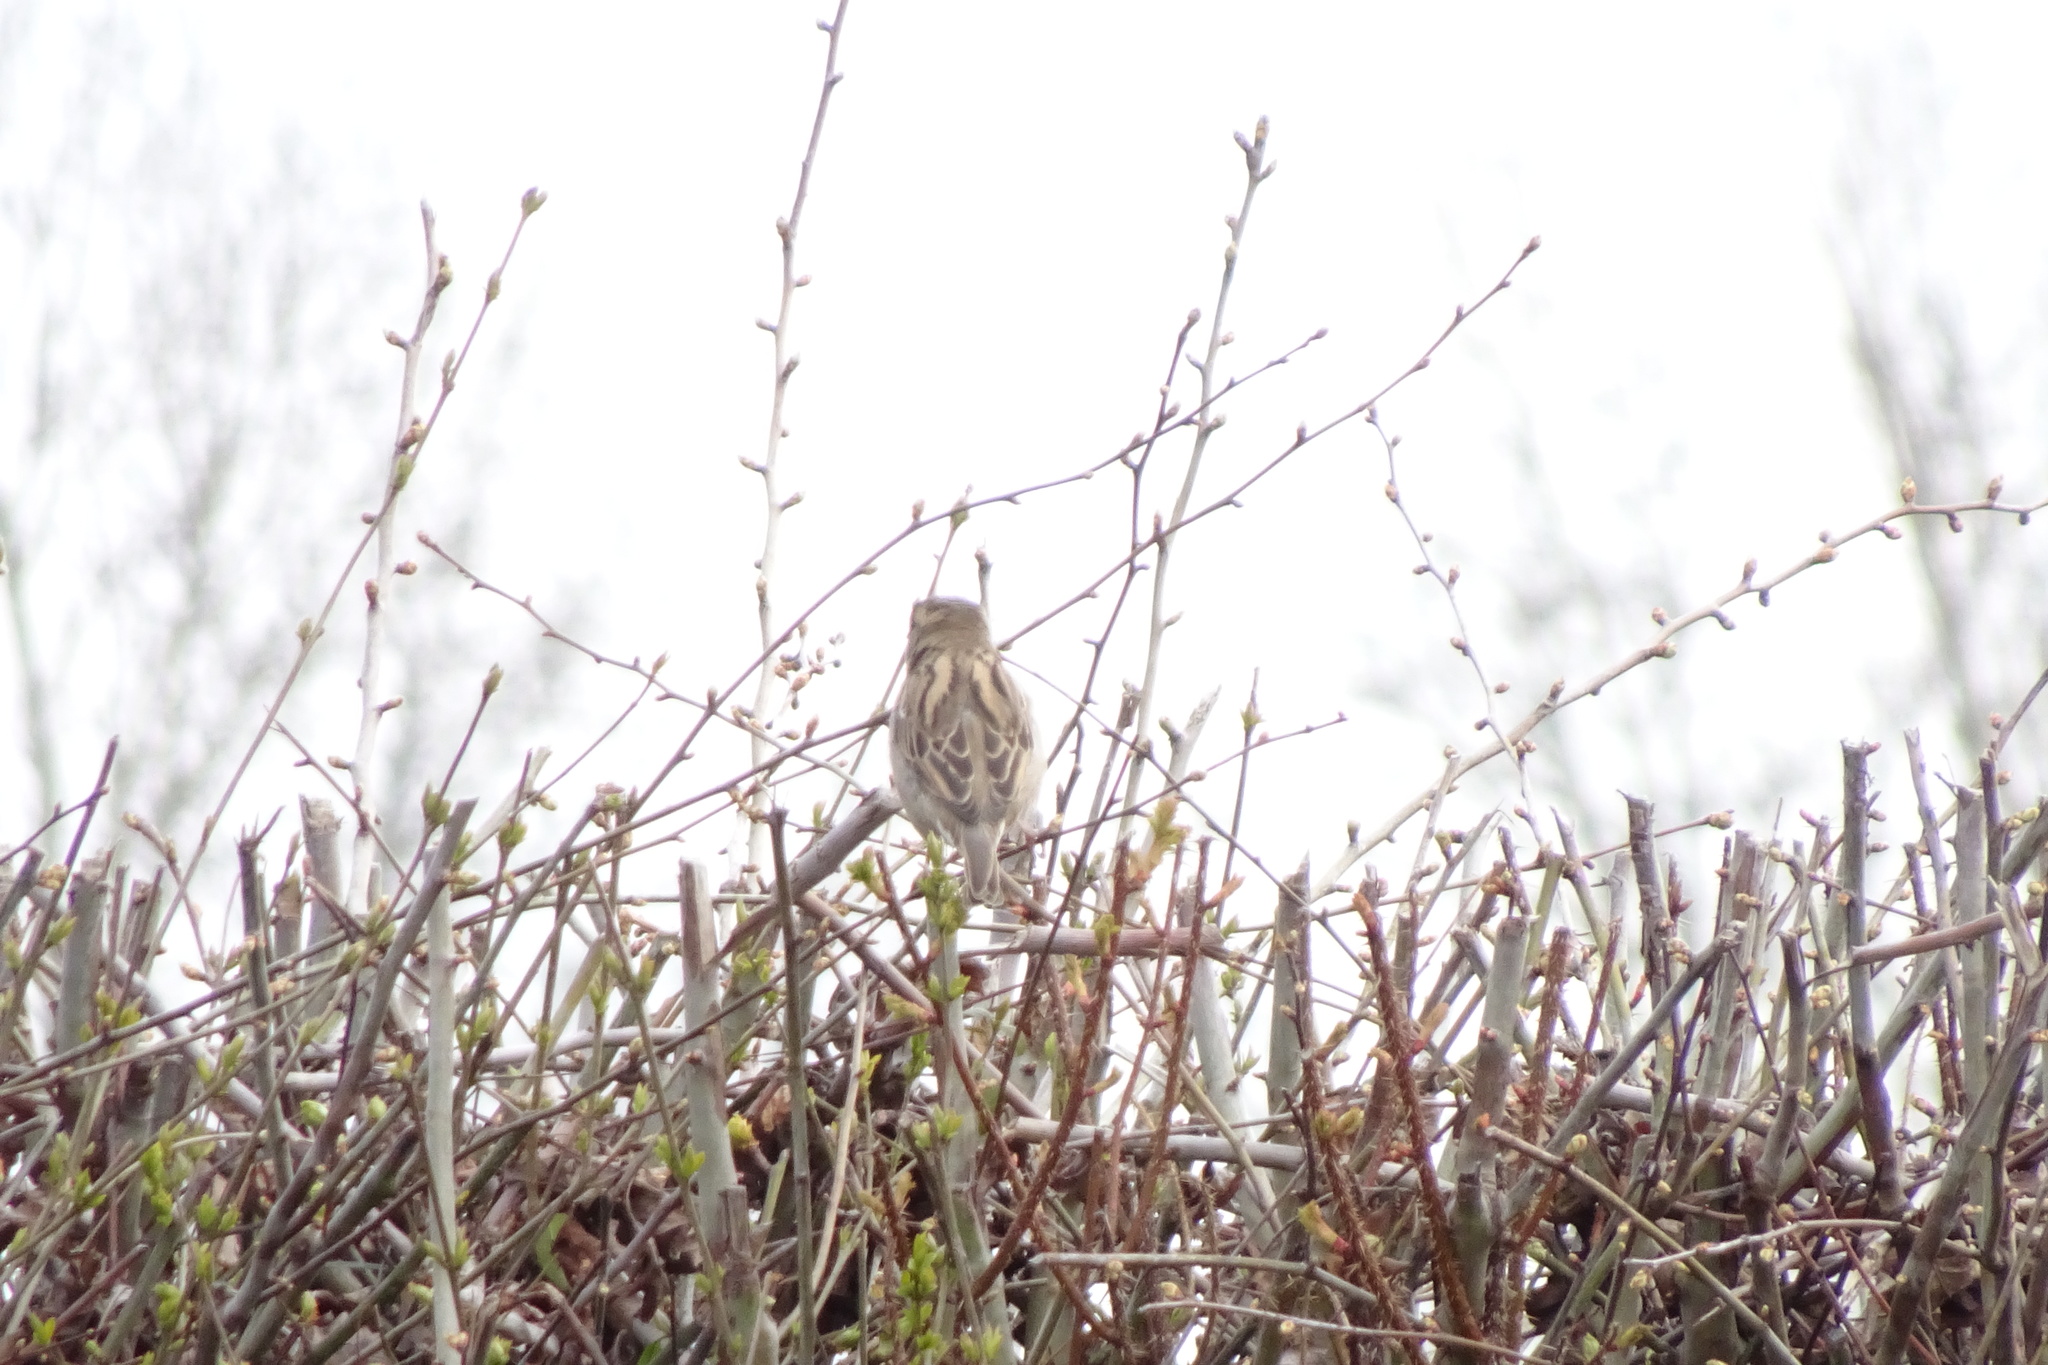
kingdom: Animalia
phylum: Chordata
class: Aves
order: Passeriformes
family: Passeridae
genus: Passer
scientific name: Passer domesticus
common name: House sparrow
